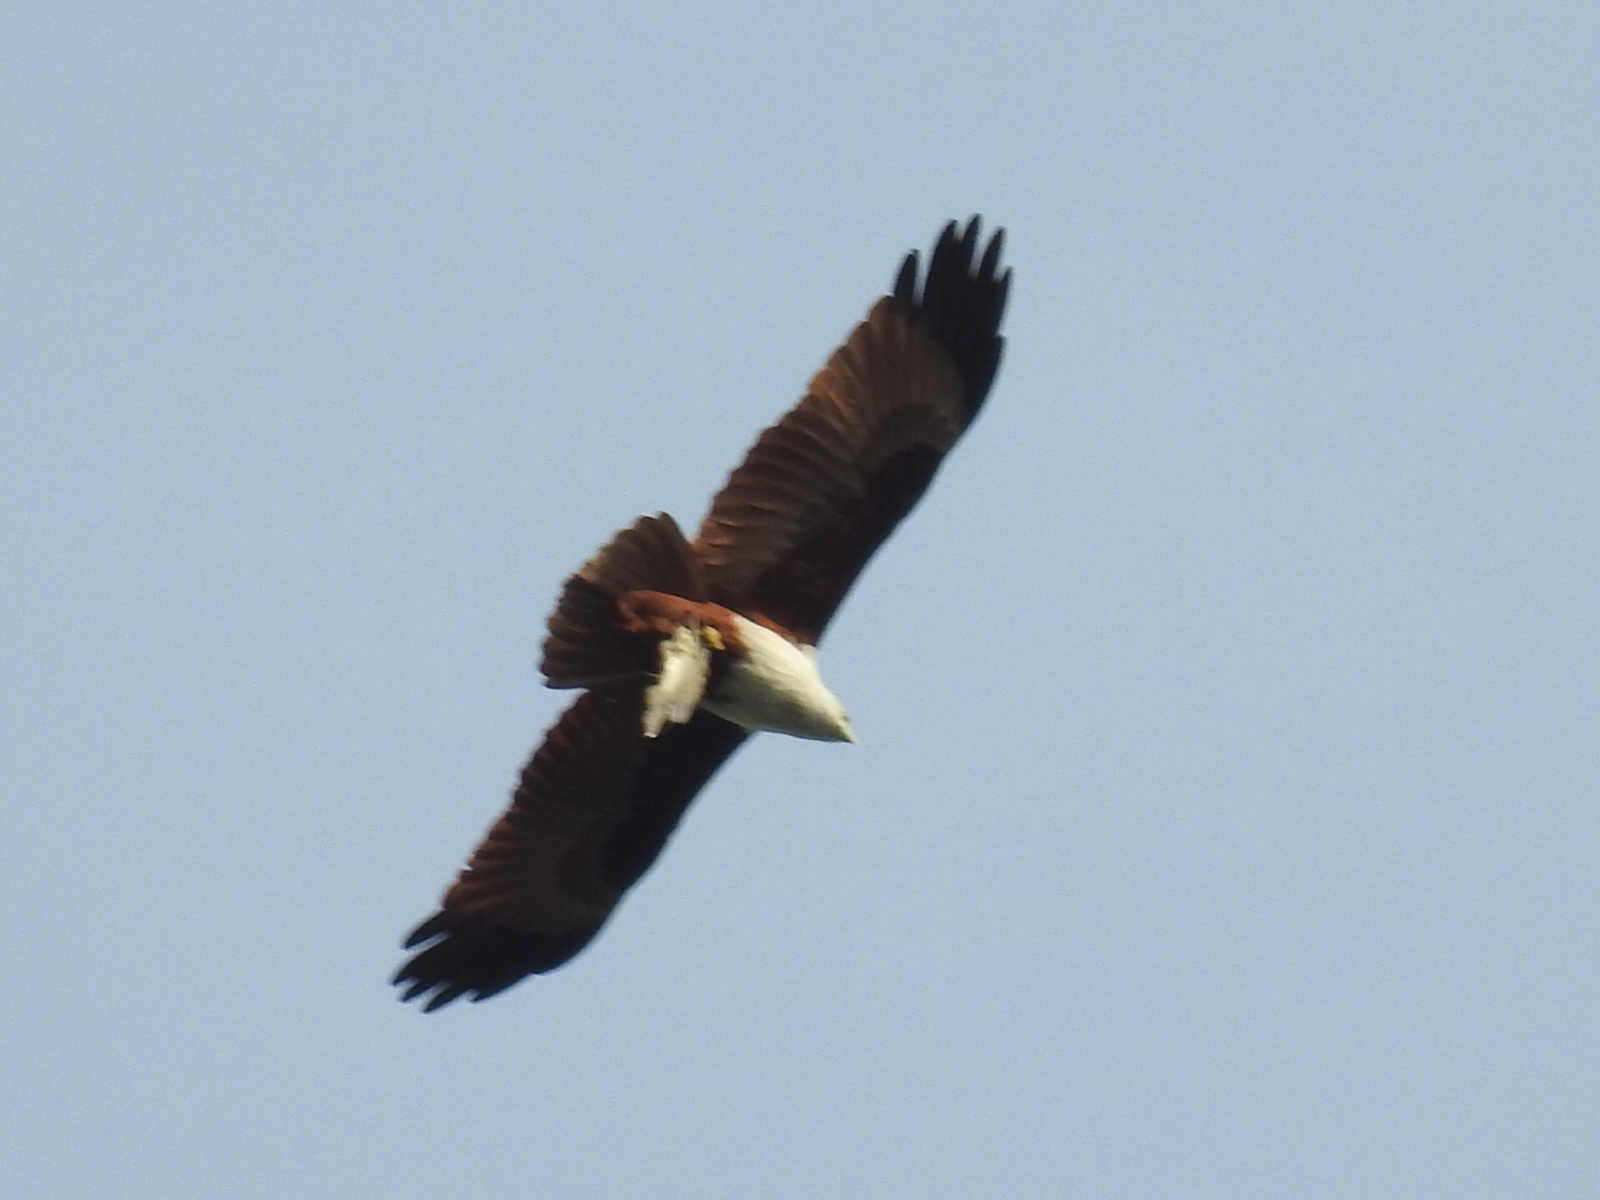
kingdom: Animalia
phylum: Chordata
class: Aves
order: Accipitriformes
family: Accipitridae
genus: Haliastur
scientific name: Haliastur indus
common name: Brahminy kite
